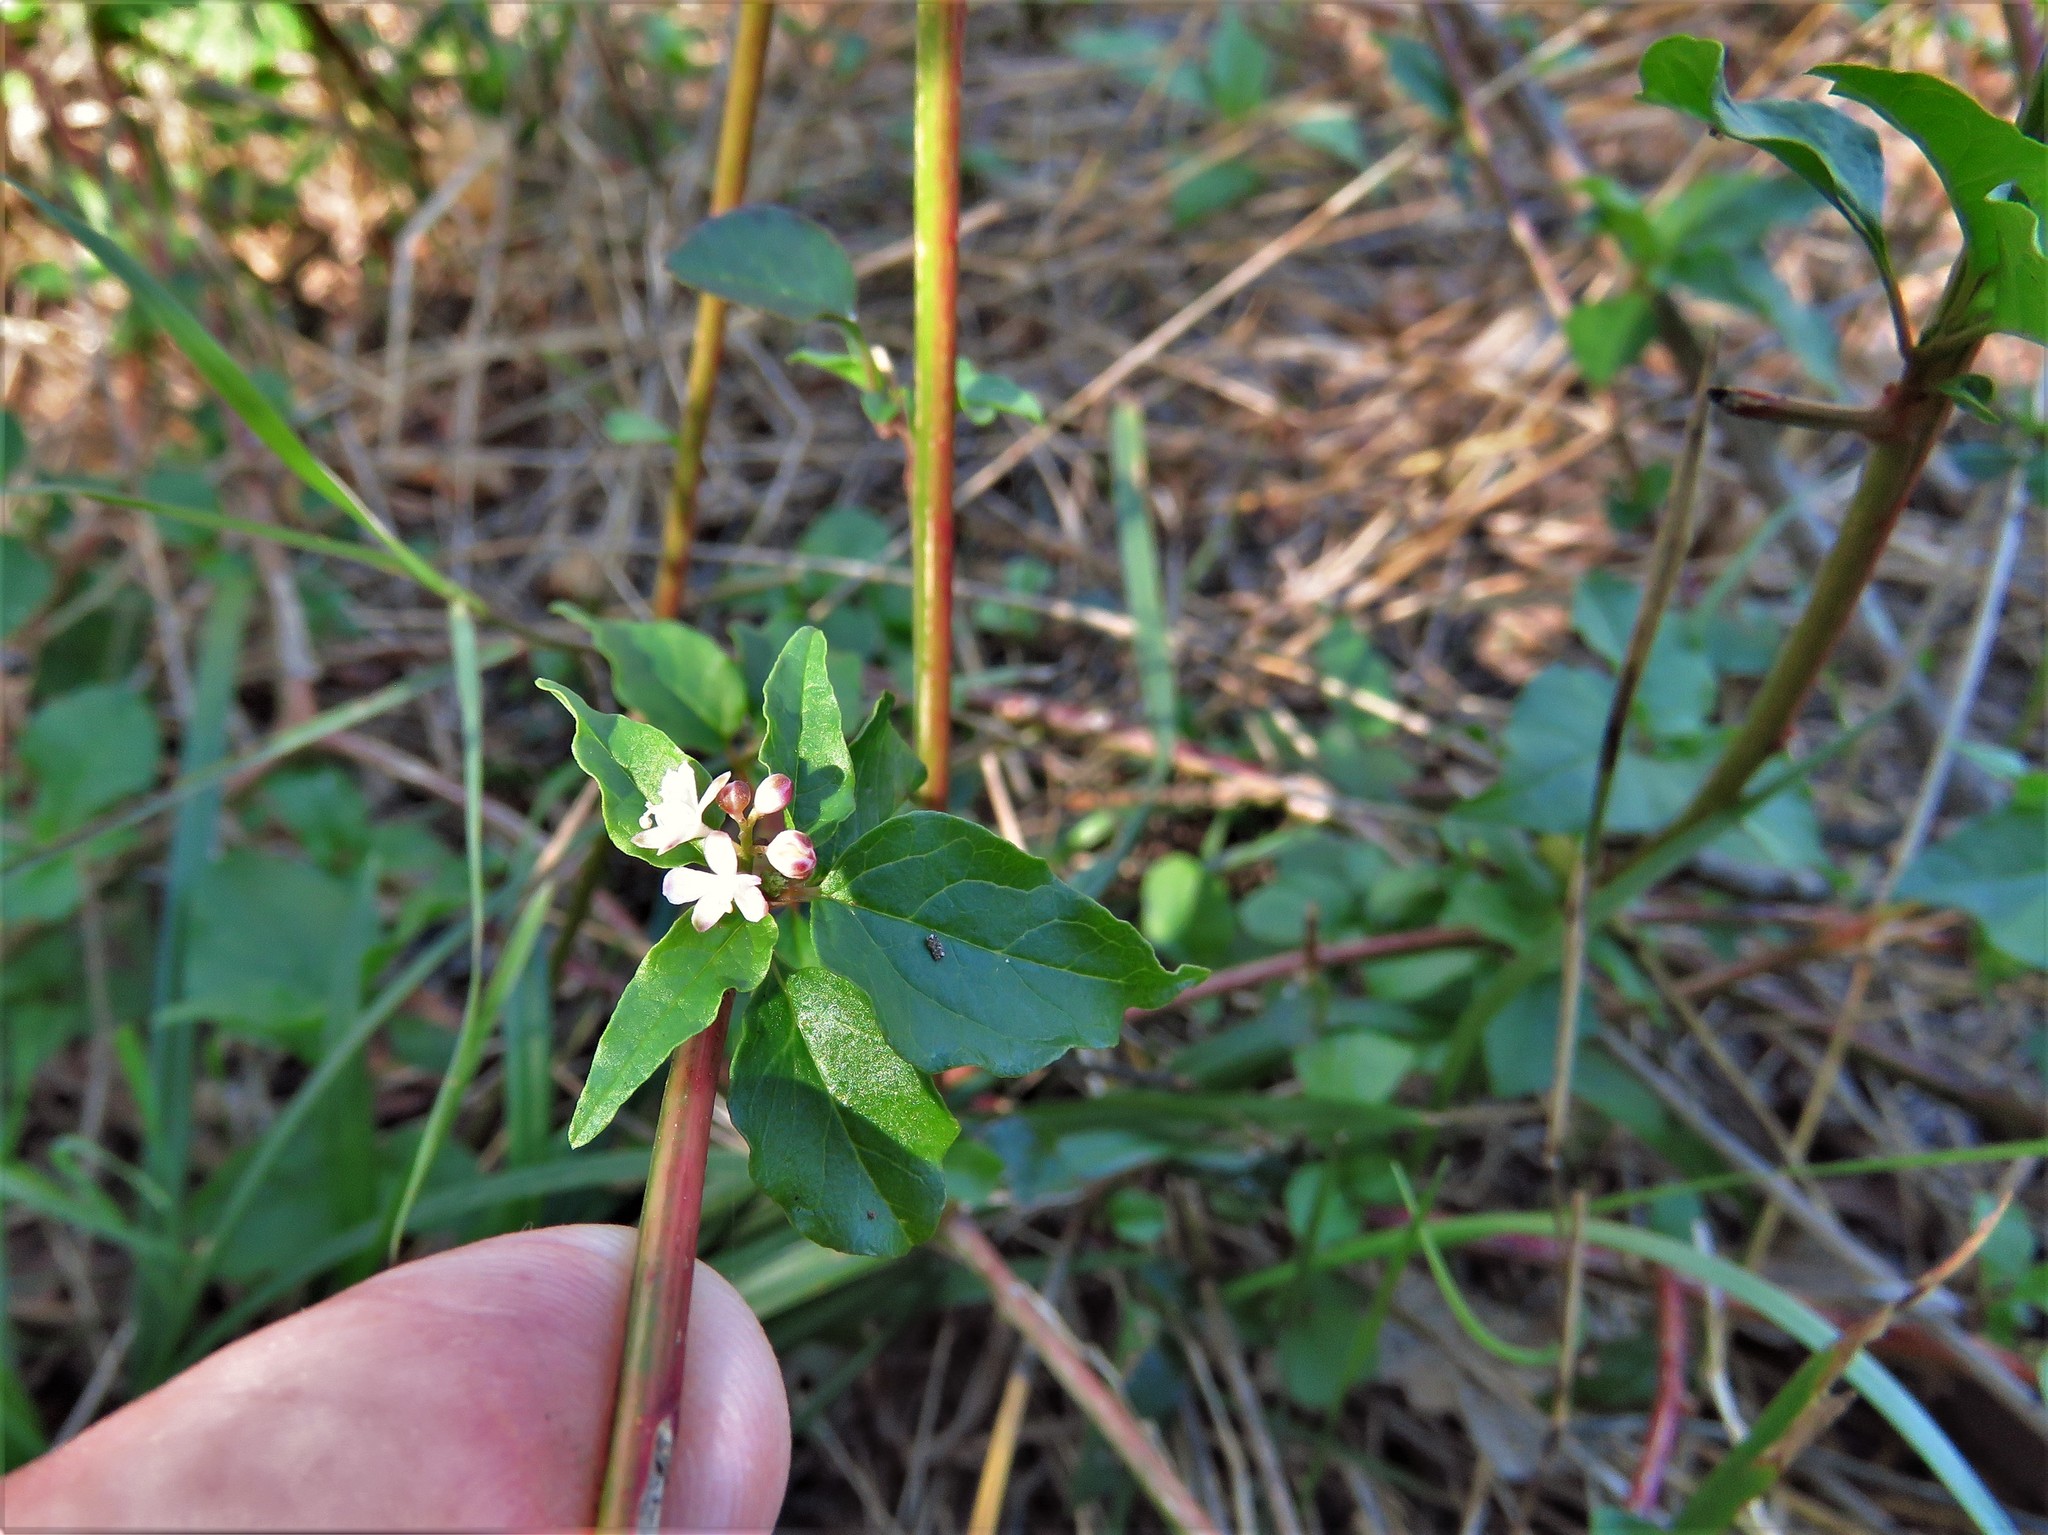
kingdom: Plantae
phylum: Tracheophyta
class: Magnoliopsida
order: Caryophyllales
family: Phytolaccaceae
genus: Rivina
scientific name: Rivina humilis
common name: Rougeplant
